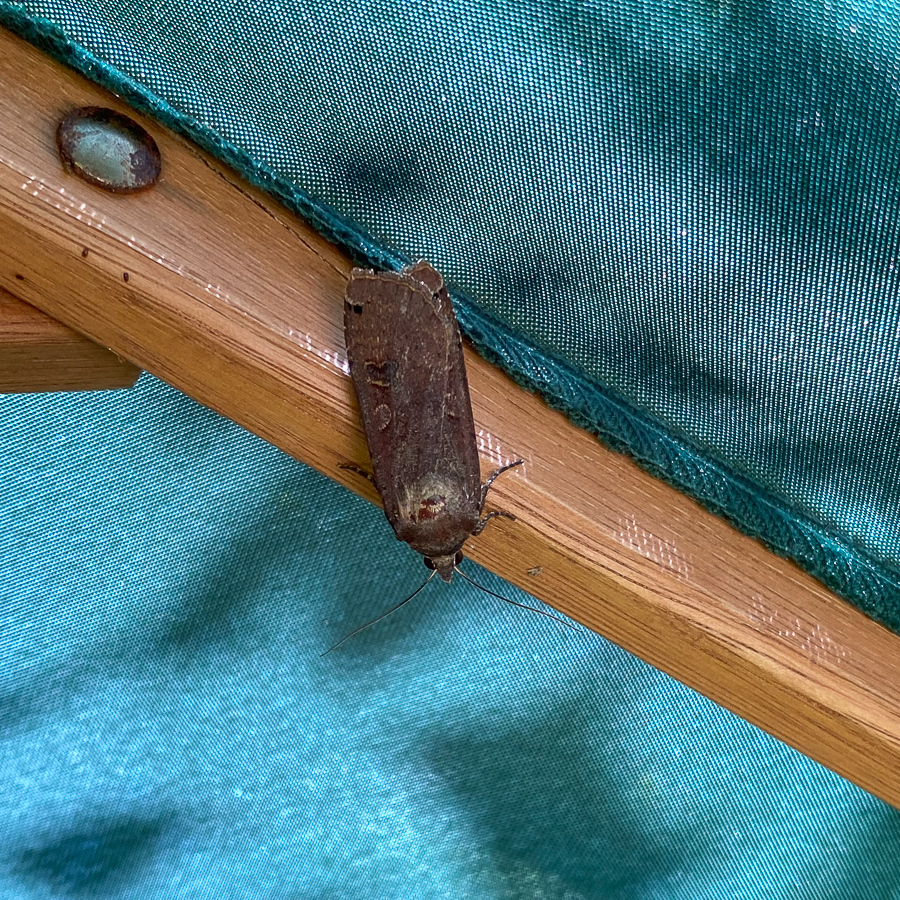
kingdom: Animalia
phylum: Arthropoda
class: Insecta
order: Lepidoptera
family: Noctuidae
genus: Noctua
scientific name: Noctua pronuba
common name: Large yellow underwing
